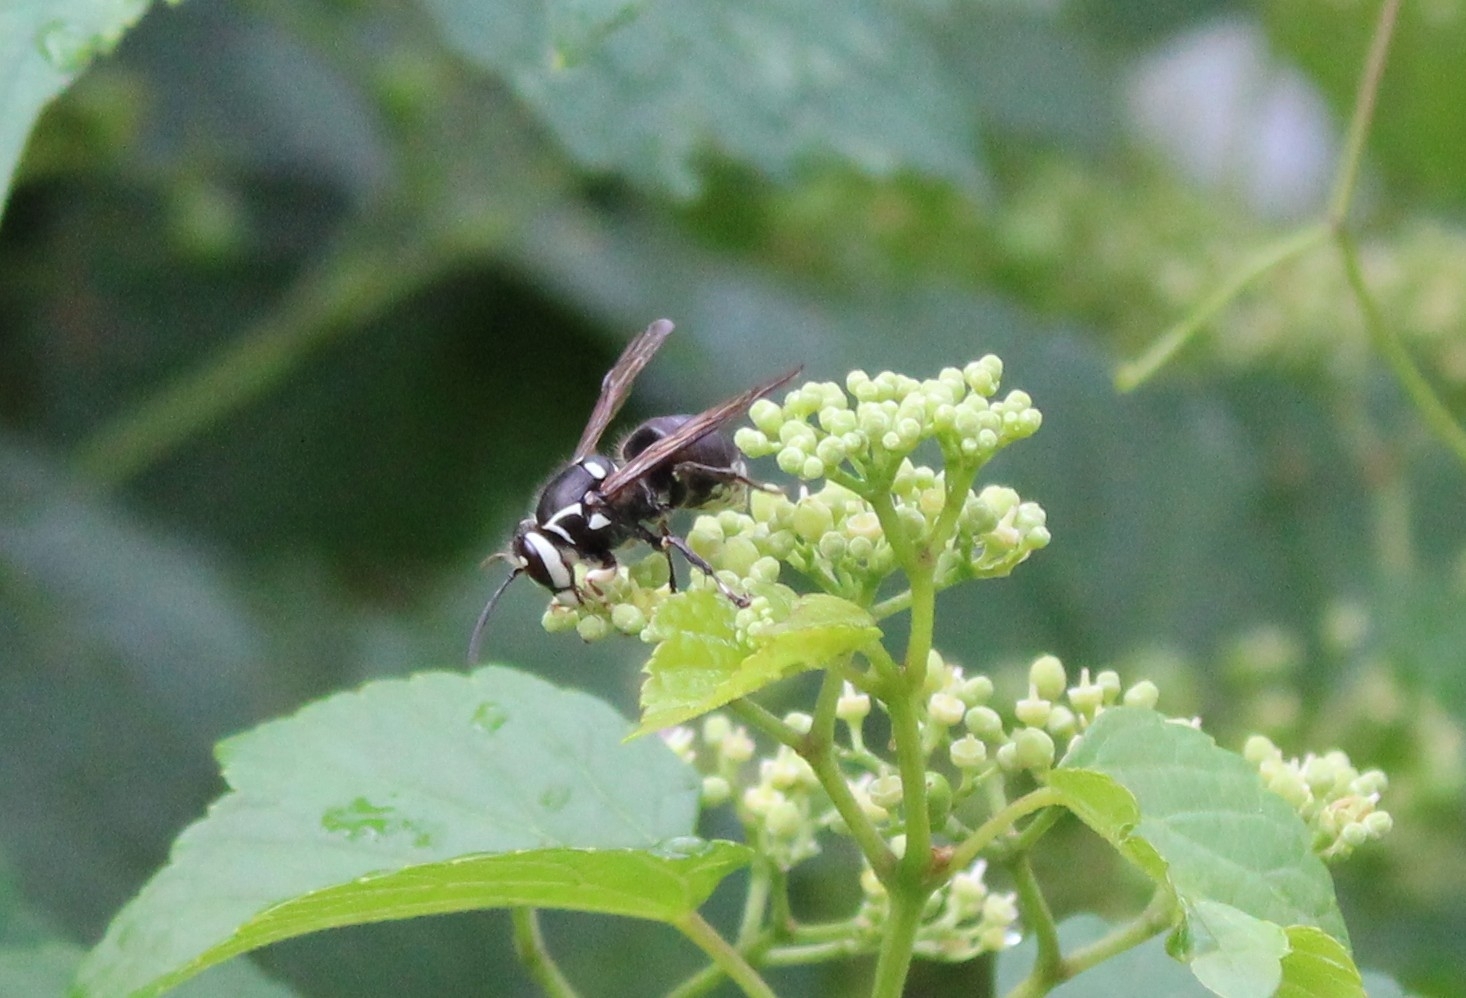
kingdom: Animalia
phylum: Arthropoda
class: Insecta
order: Hymenoptera
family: Vespidae
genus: Dolichovespula
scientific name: Dolichovespula maculata
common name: Bald-faced hornet
